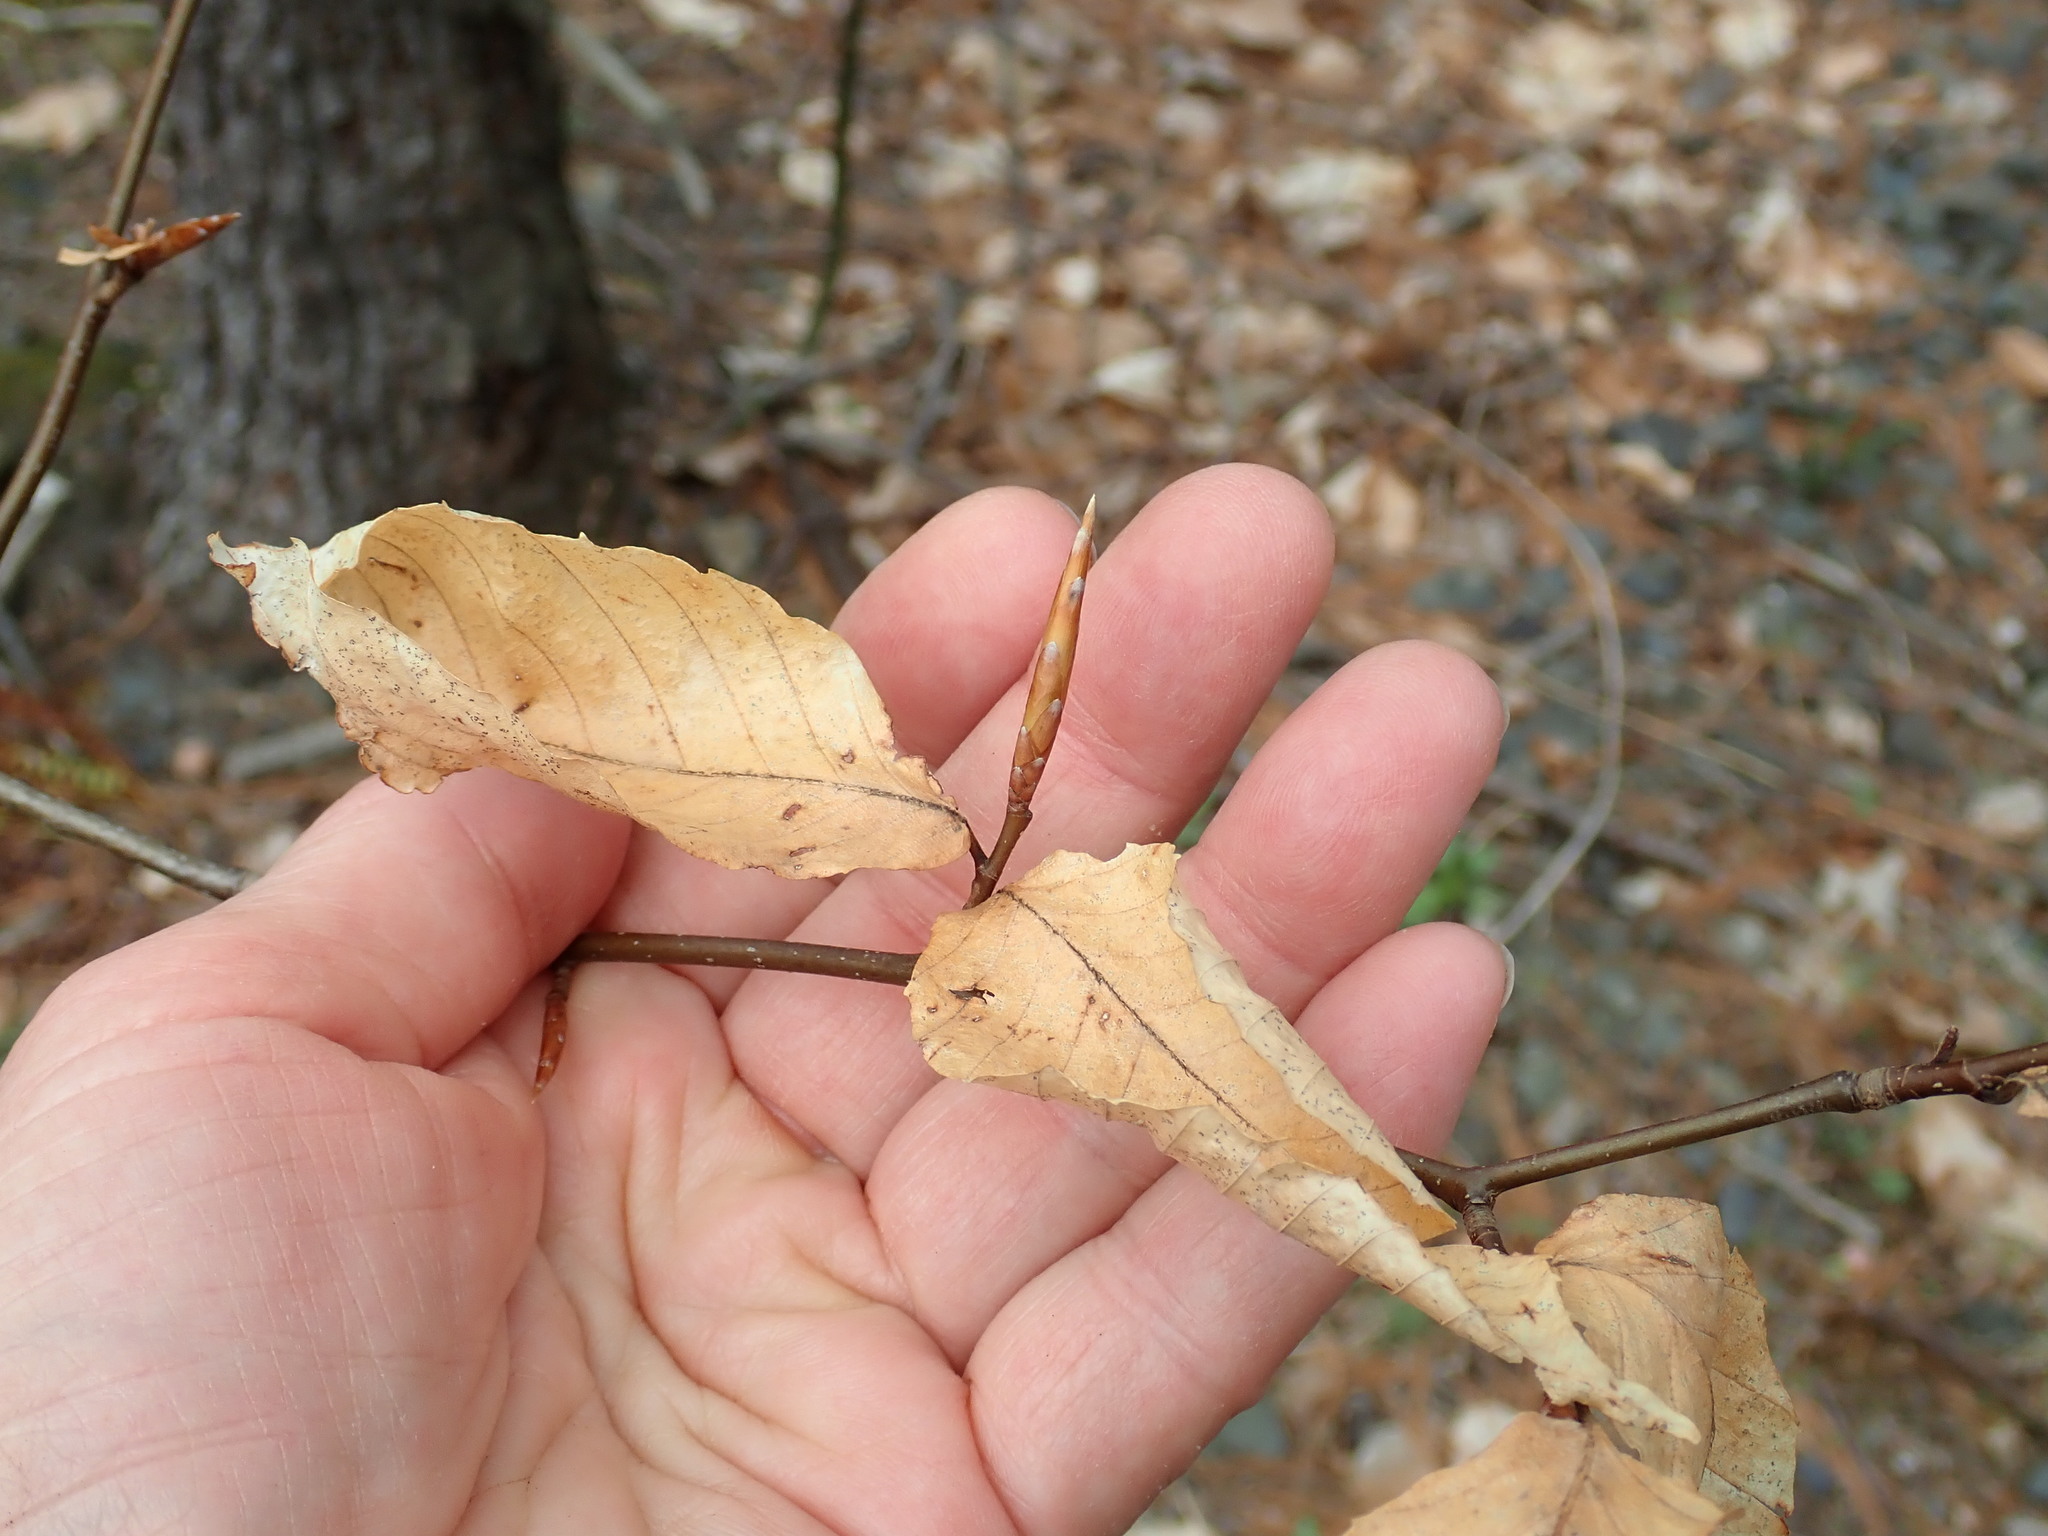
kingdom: Plantae
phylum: Tracheophyta
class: Magnoliopsida
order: Fagales
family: Fagaceae
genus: Fagus
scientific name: Fagus grandifolia
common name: American beech
